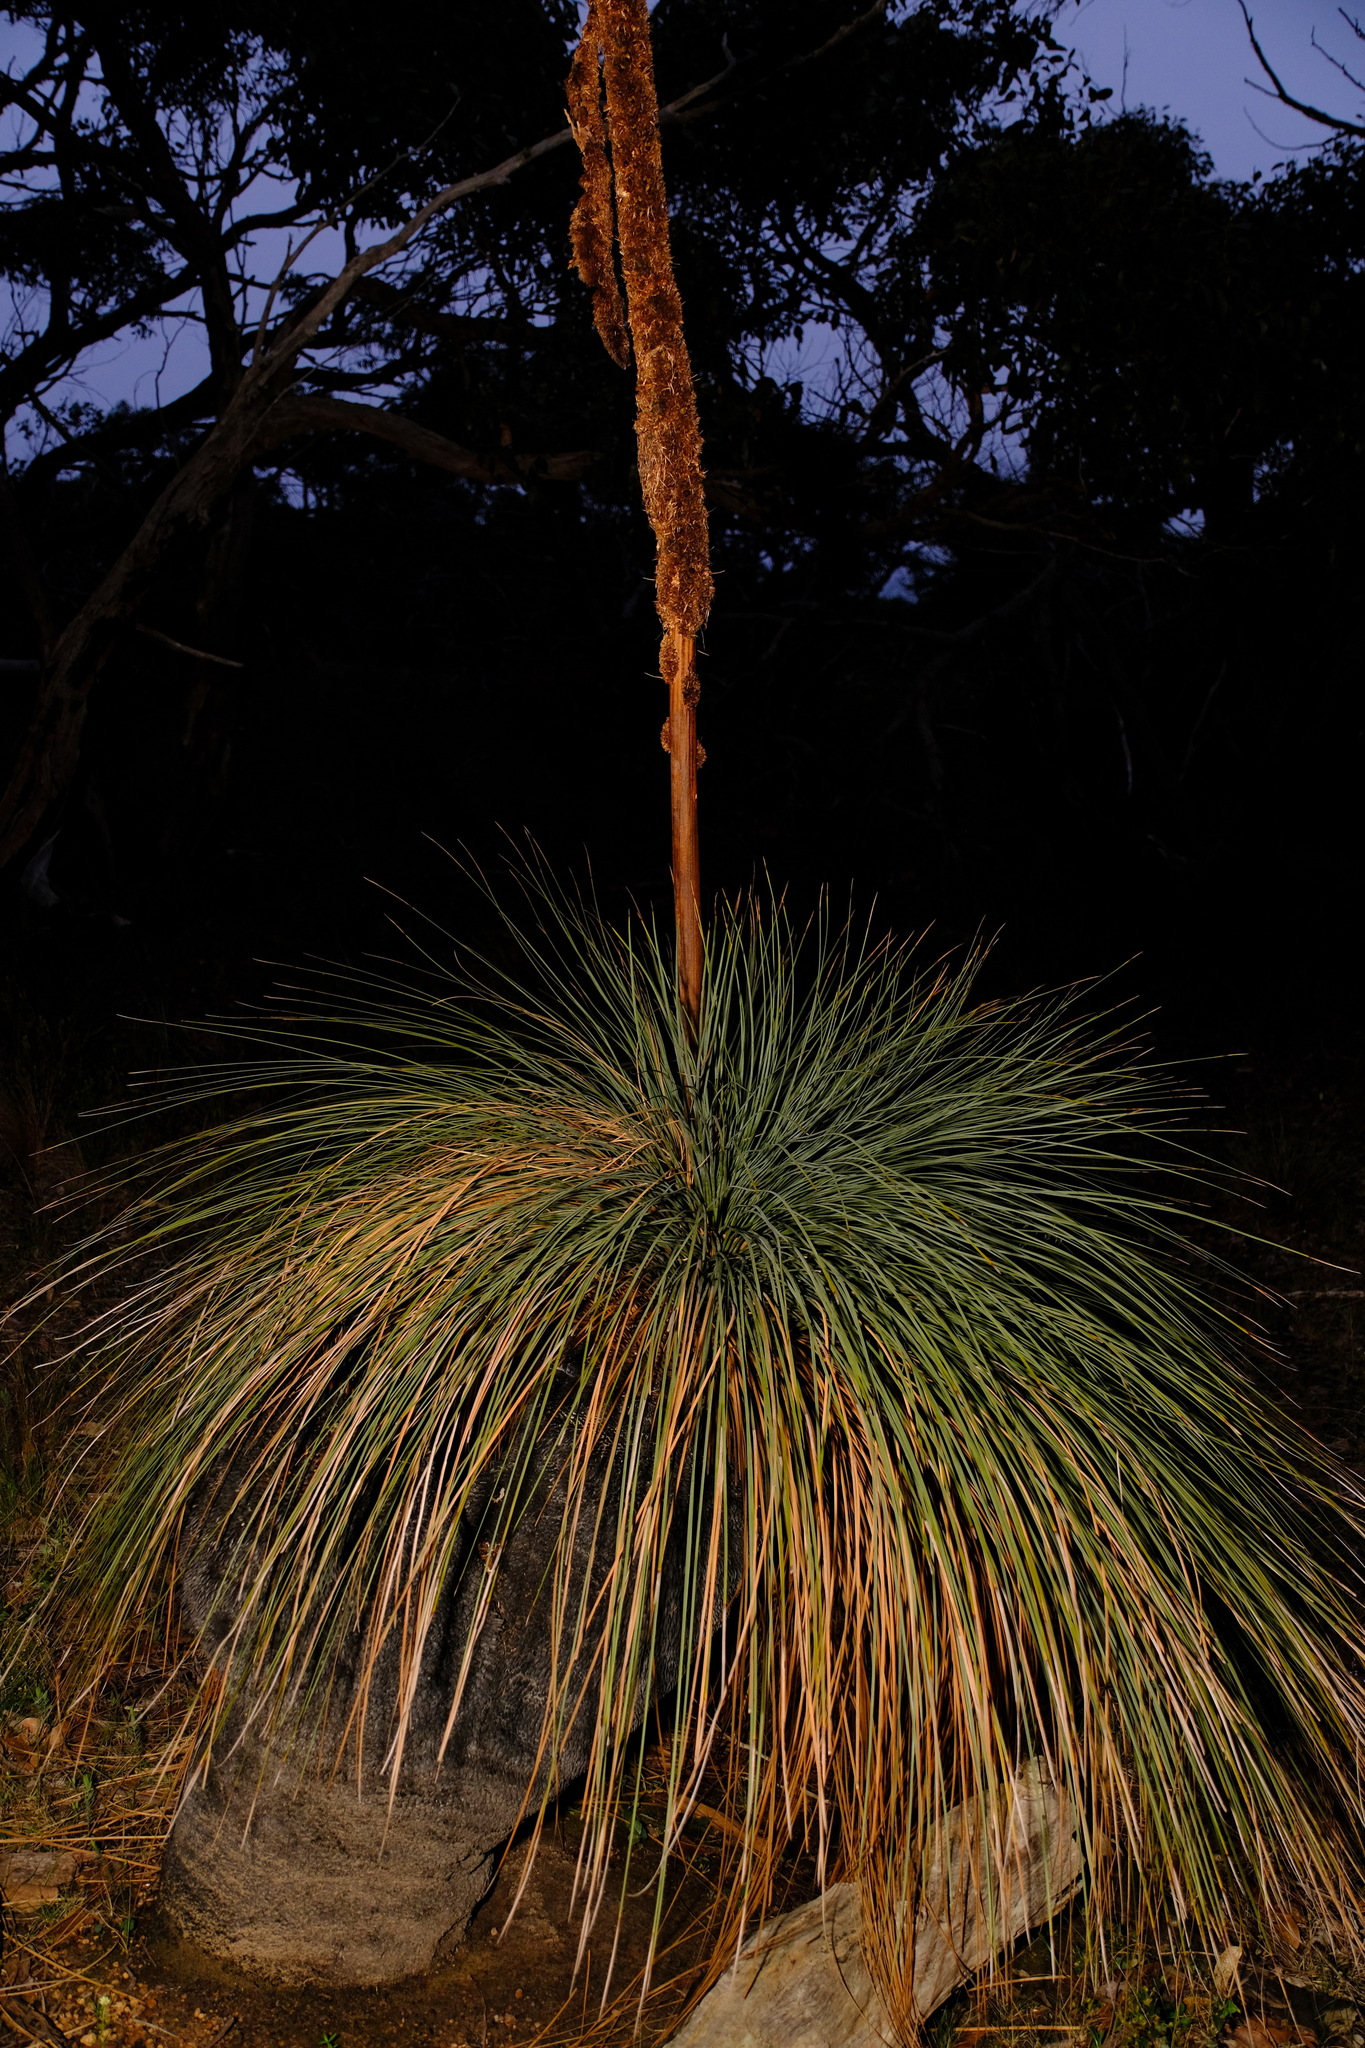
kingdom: Plantae
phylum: Tracheophyta
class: Liliopsida
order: Asparagales
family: Asphodelaceae
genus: Xanthorrhoea
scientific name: Xanthorrhoea australis
